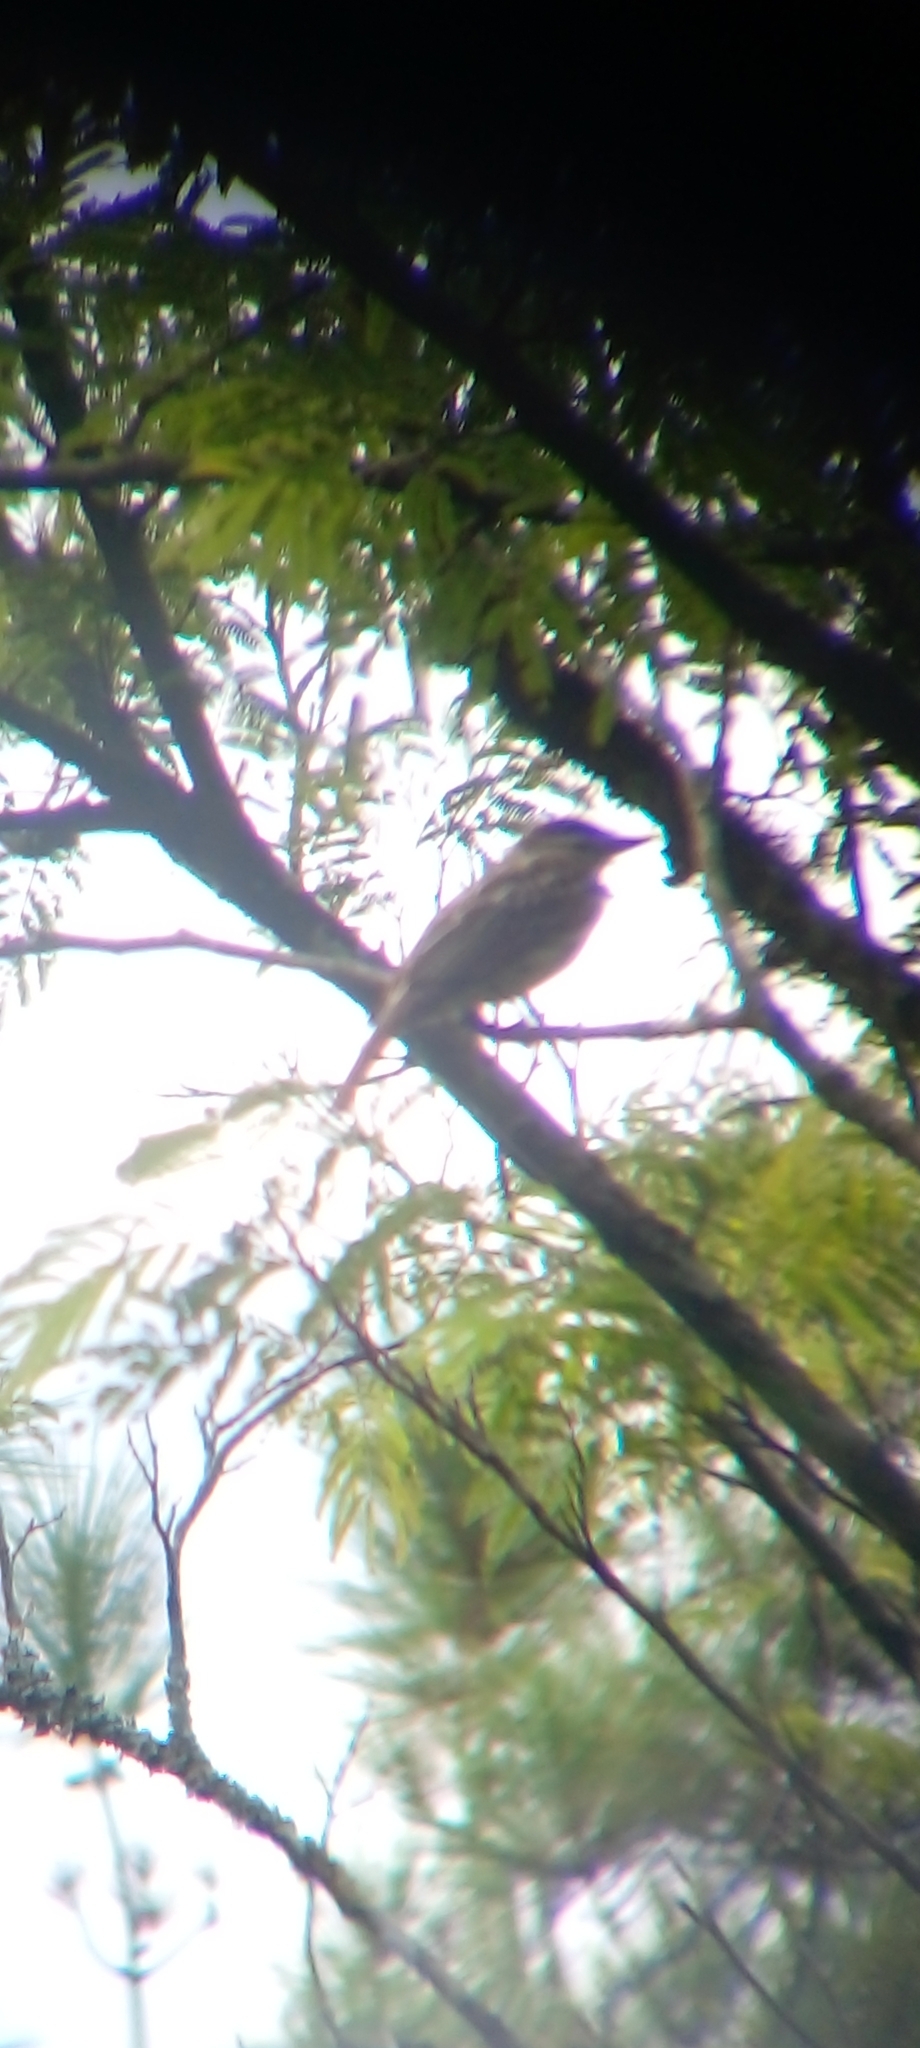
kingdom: Animalia
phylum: Chordata
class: Aves
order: Passeriformes
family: Tyrannidae
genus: Myiodynastes
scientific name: Myiodynastes maculatus
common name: Streaked flycatcher
